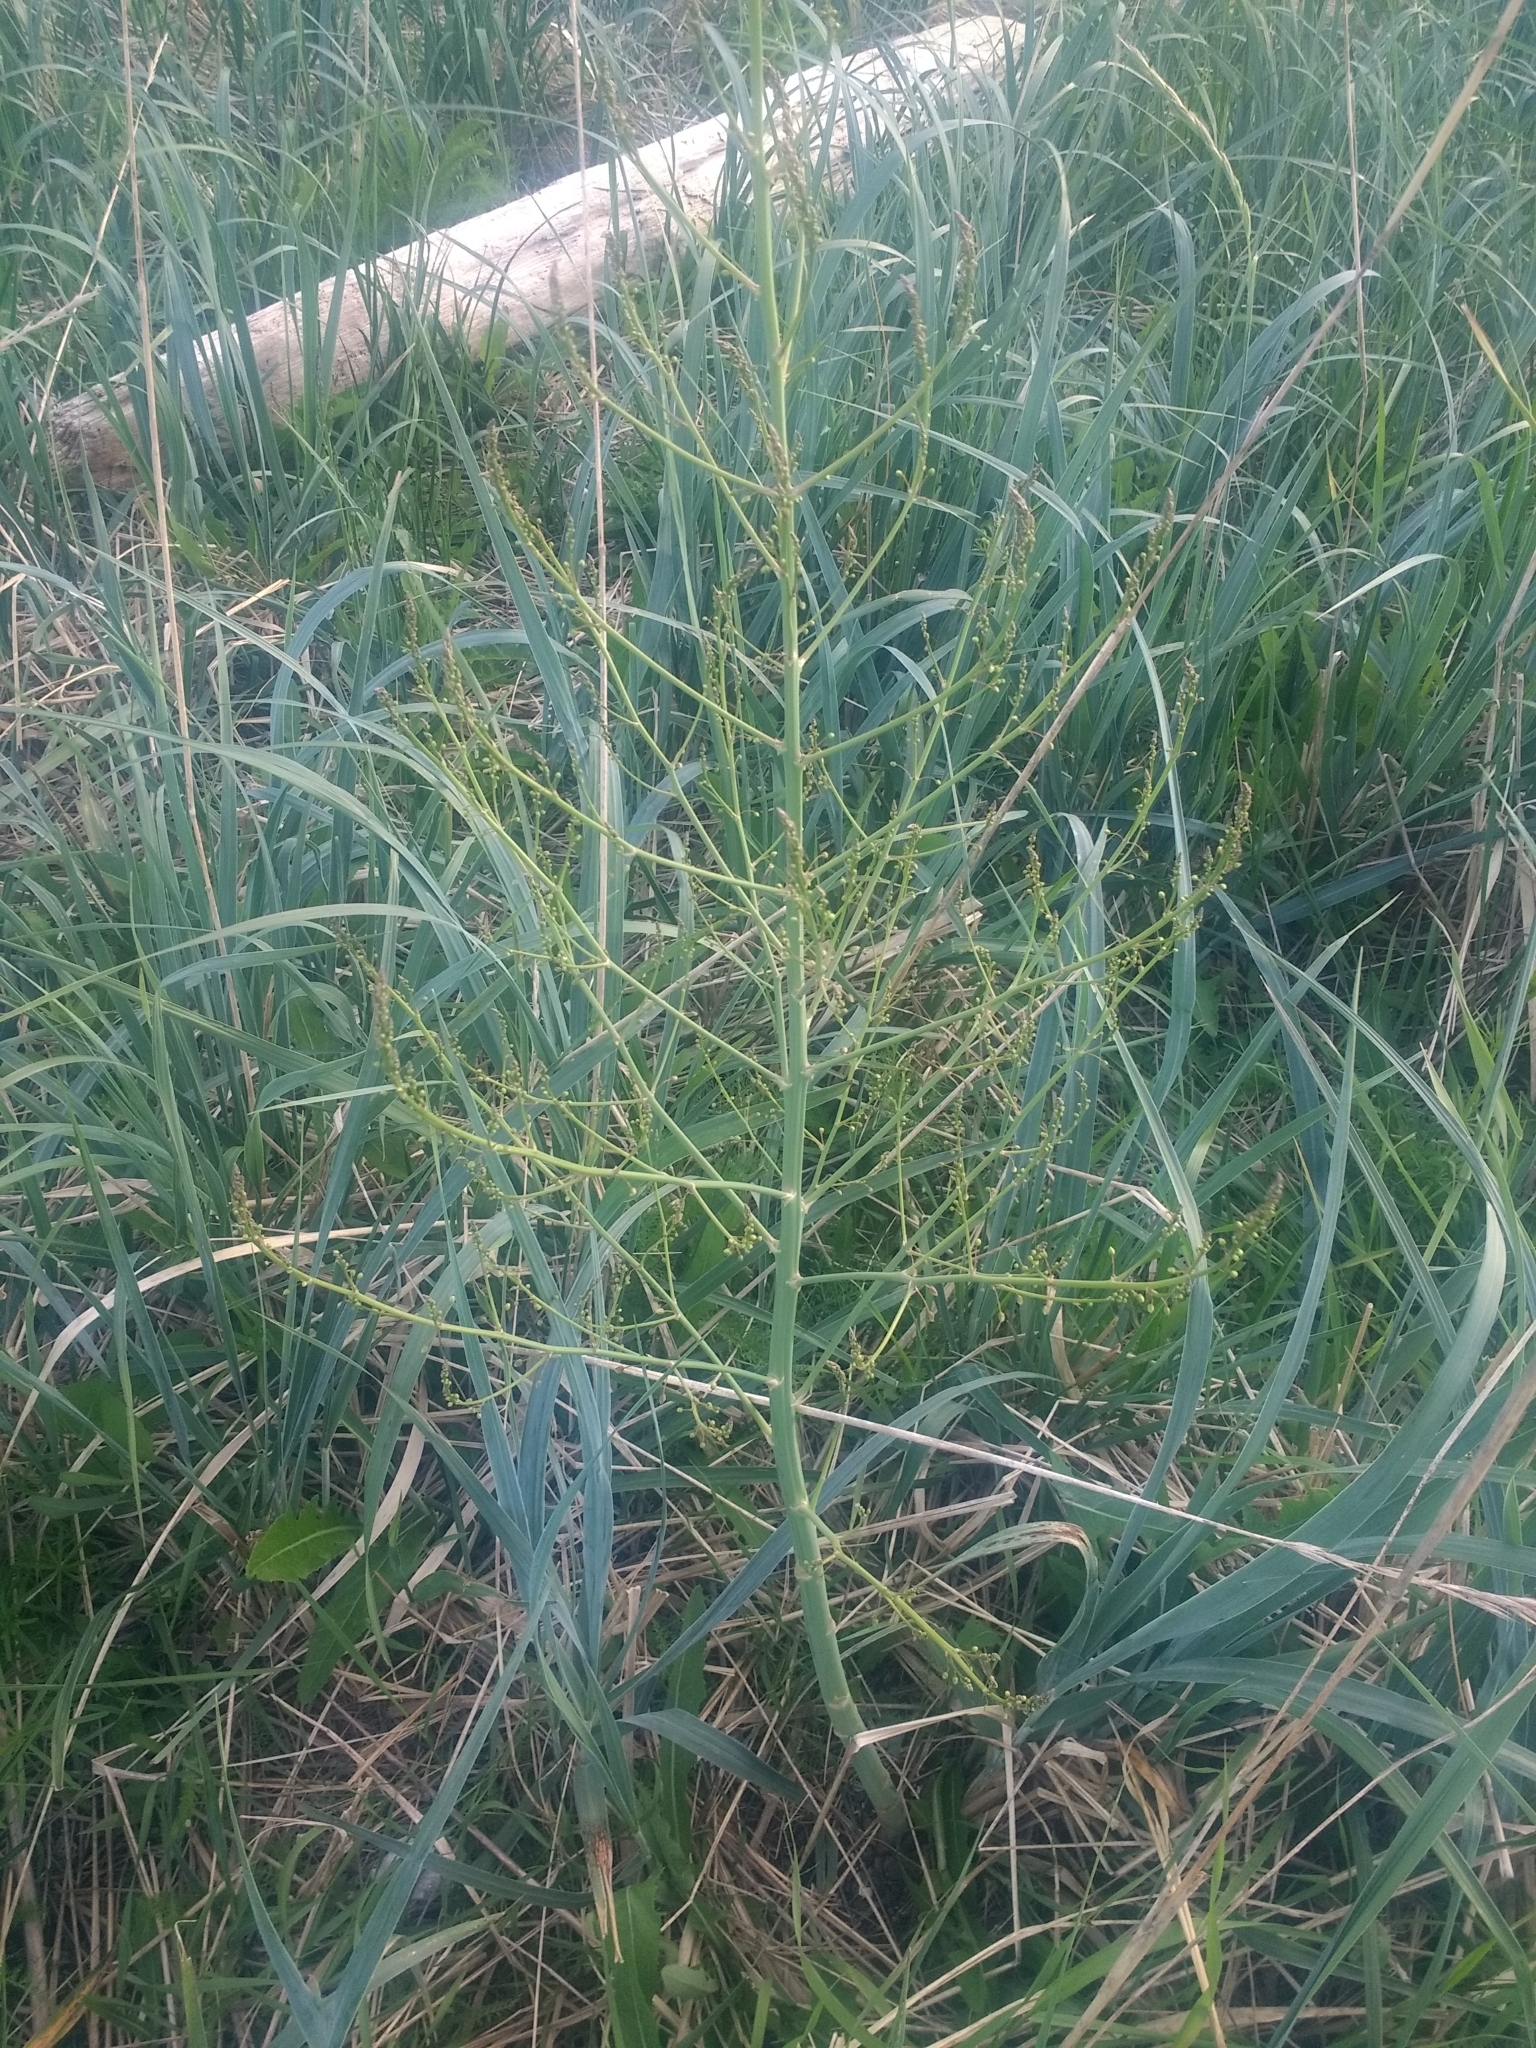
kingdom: Plantae
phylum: Tracheophyta
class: Liliopsida
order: Asparagales
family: Asparagaceae
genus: Asparagus
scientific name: Asparagus officinalis
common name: Garden asparagus
